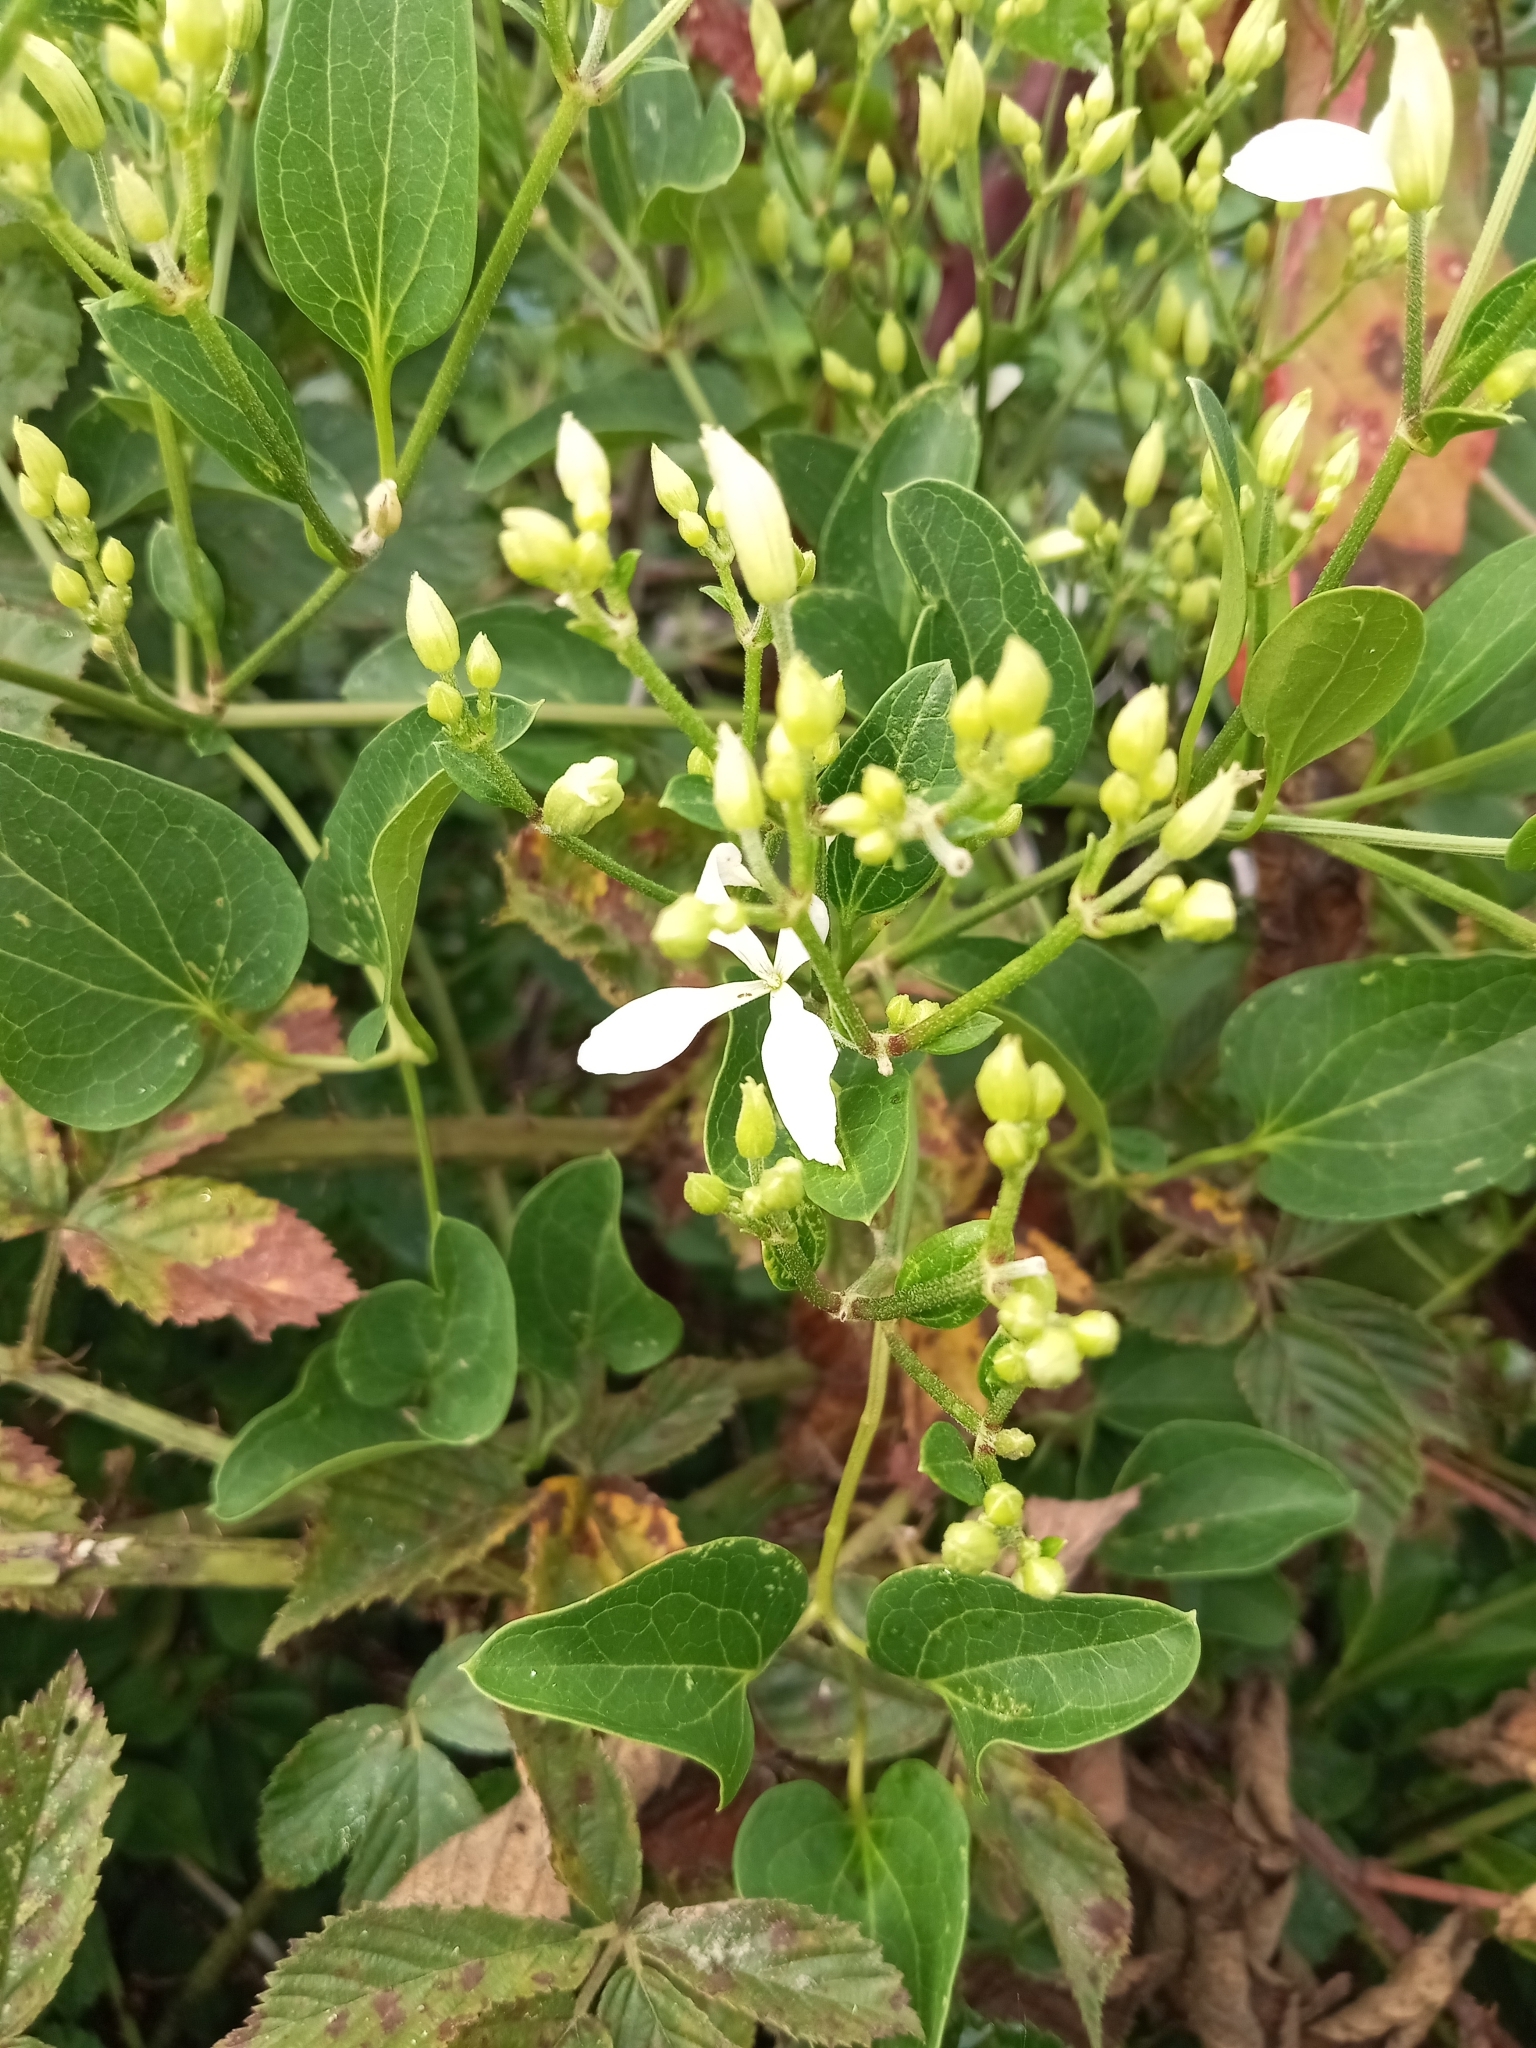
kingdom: Plantae
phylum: Tracheophyta
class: Magnoliopsida
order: Ranunculales
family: Ranunculaceae
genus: Clematis
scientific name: Clematis terniflora
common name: Sweet autumn clematis
